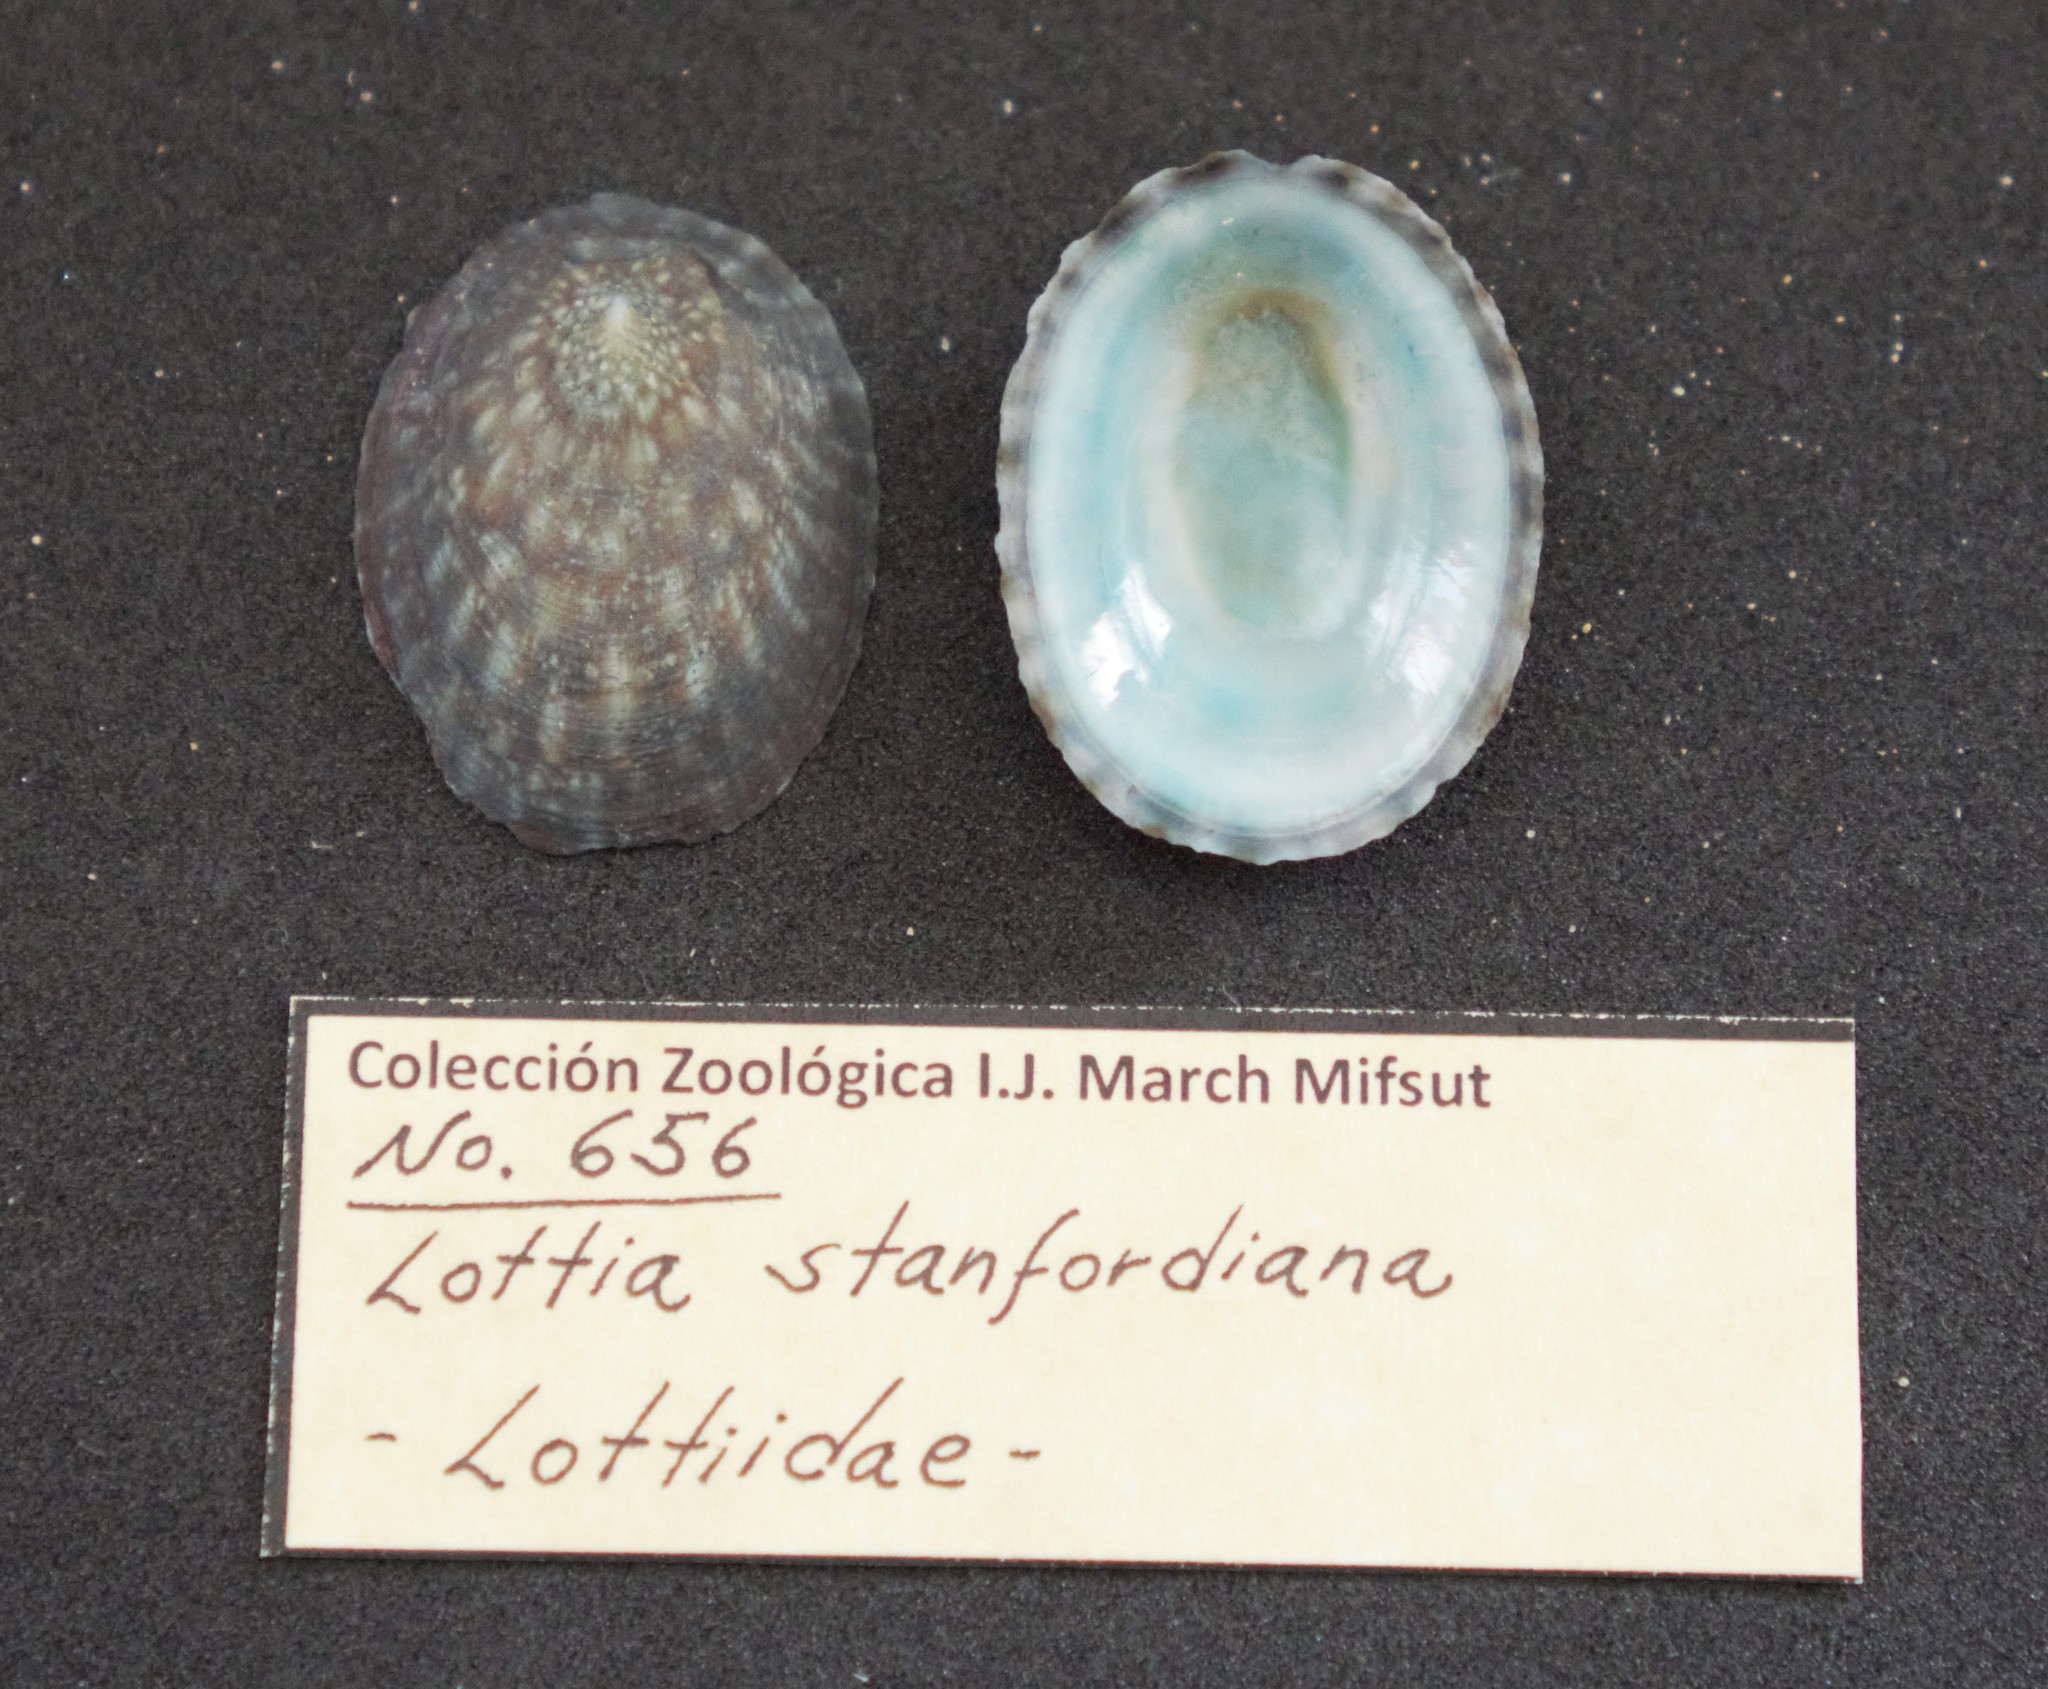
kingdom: Animalia
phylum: Mollusca
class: Gastropoda
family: Lottiidae
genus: Lottia
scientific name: Lottia stanfordiana
